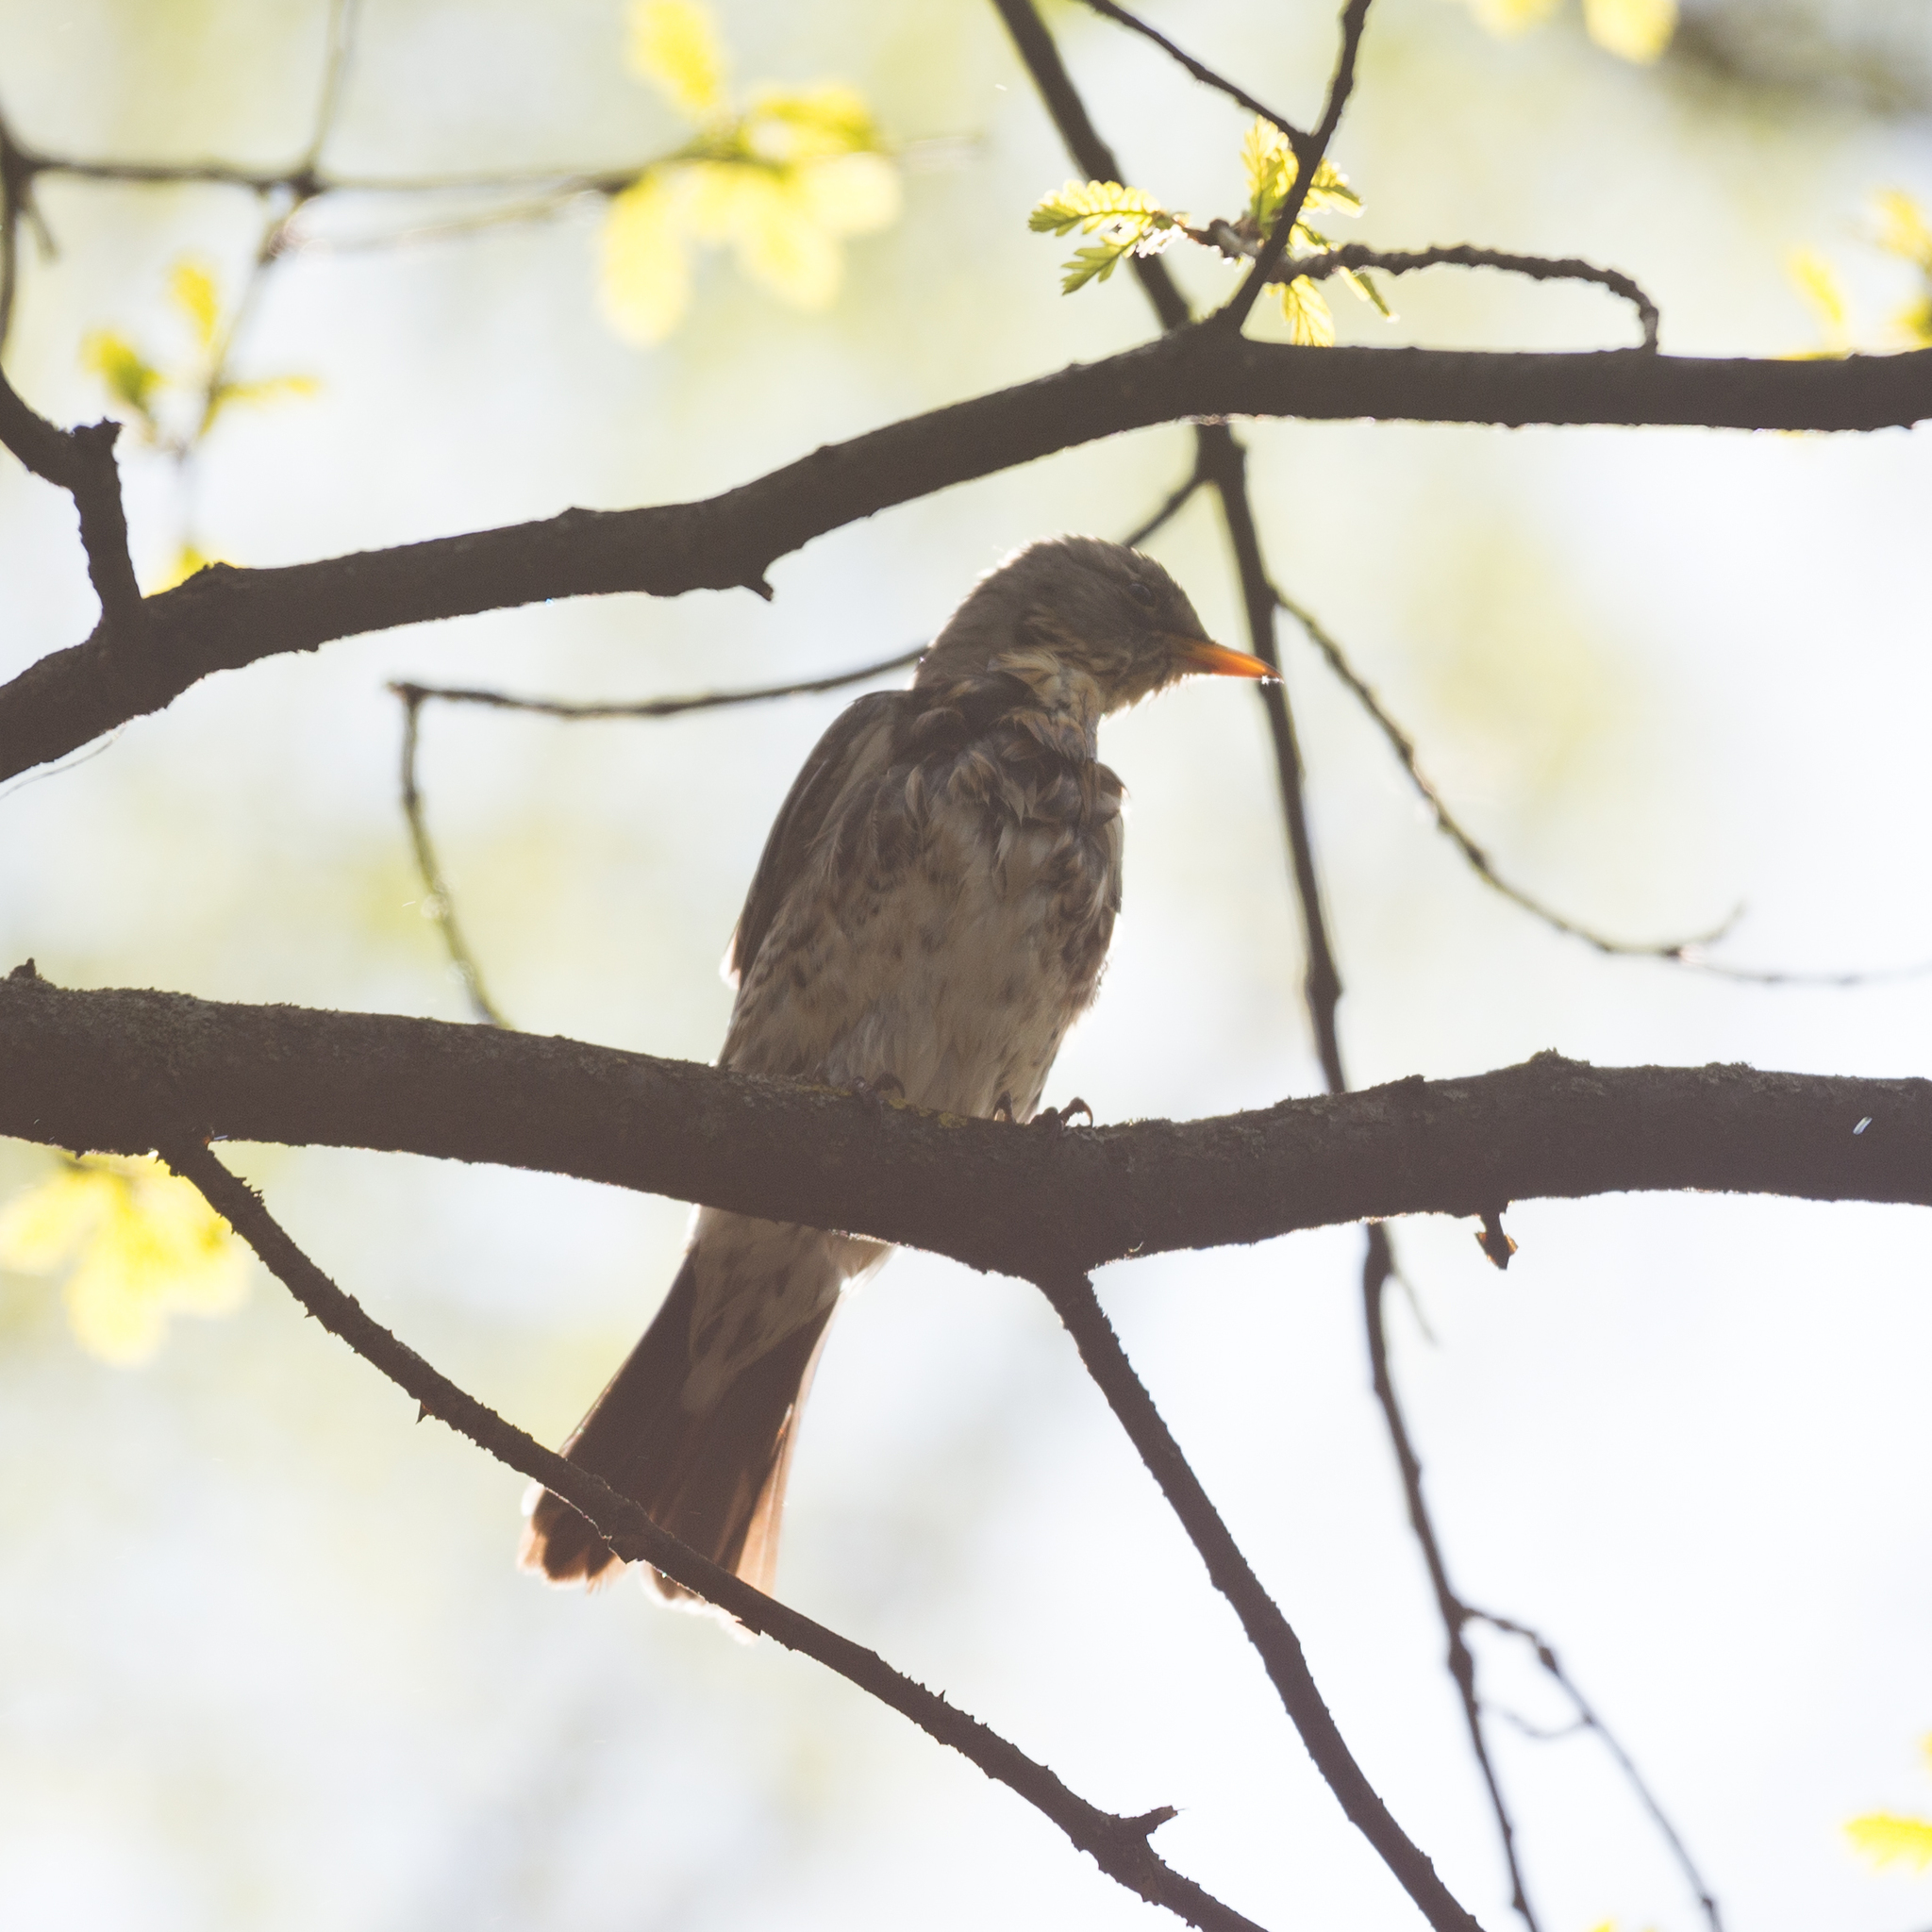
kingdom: Animalia
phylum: Chordata
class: Aves
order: Passeriformes
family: Turdidae
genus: Turdus
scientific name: Turdus pilaris
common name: Fieldfare
